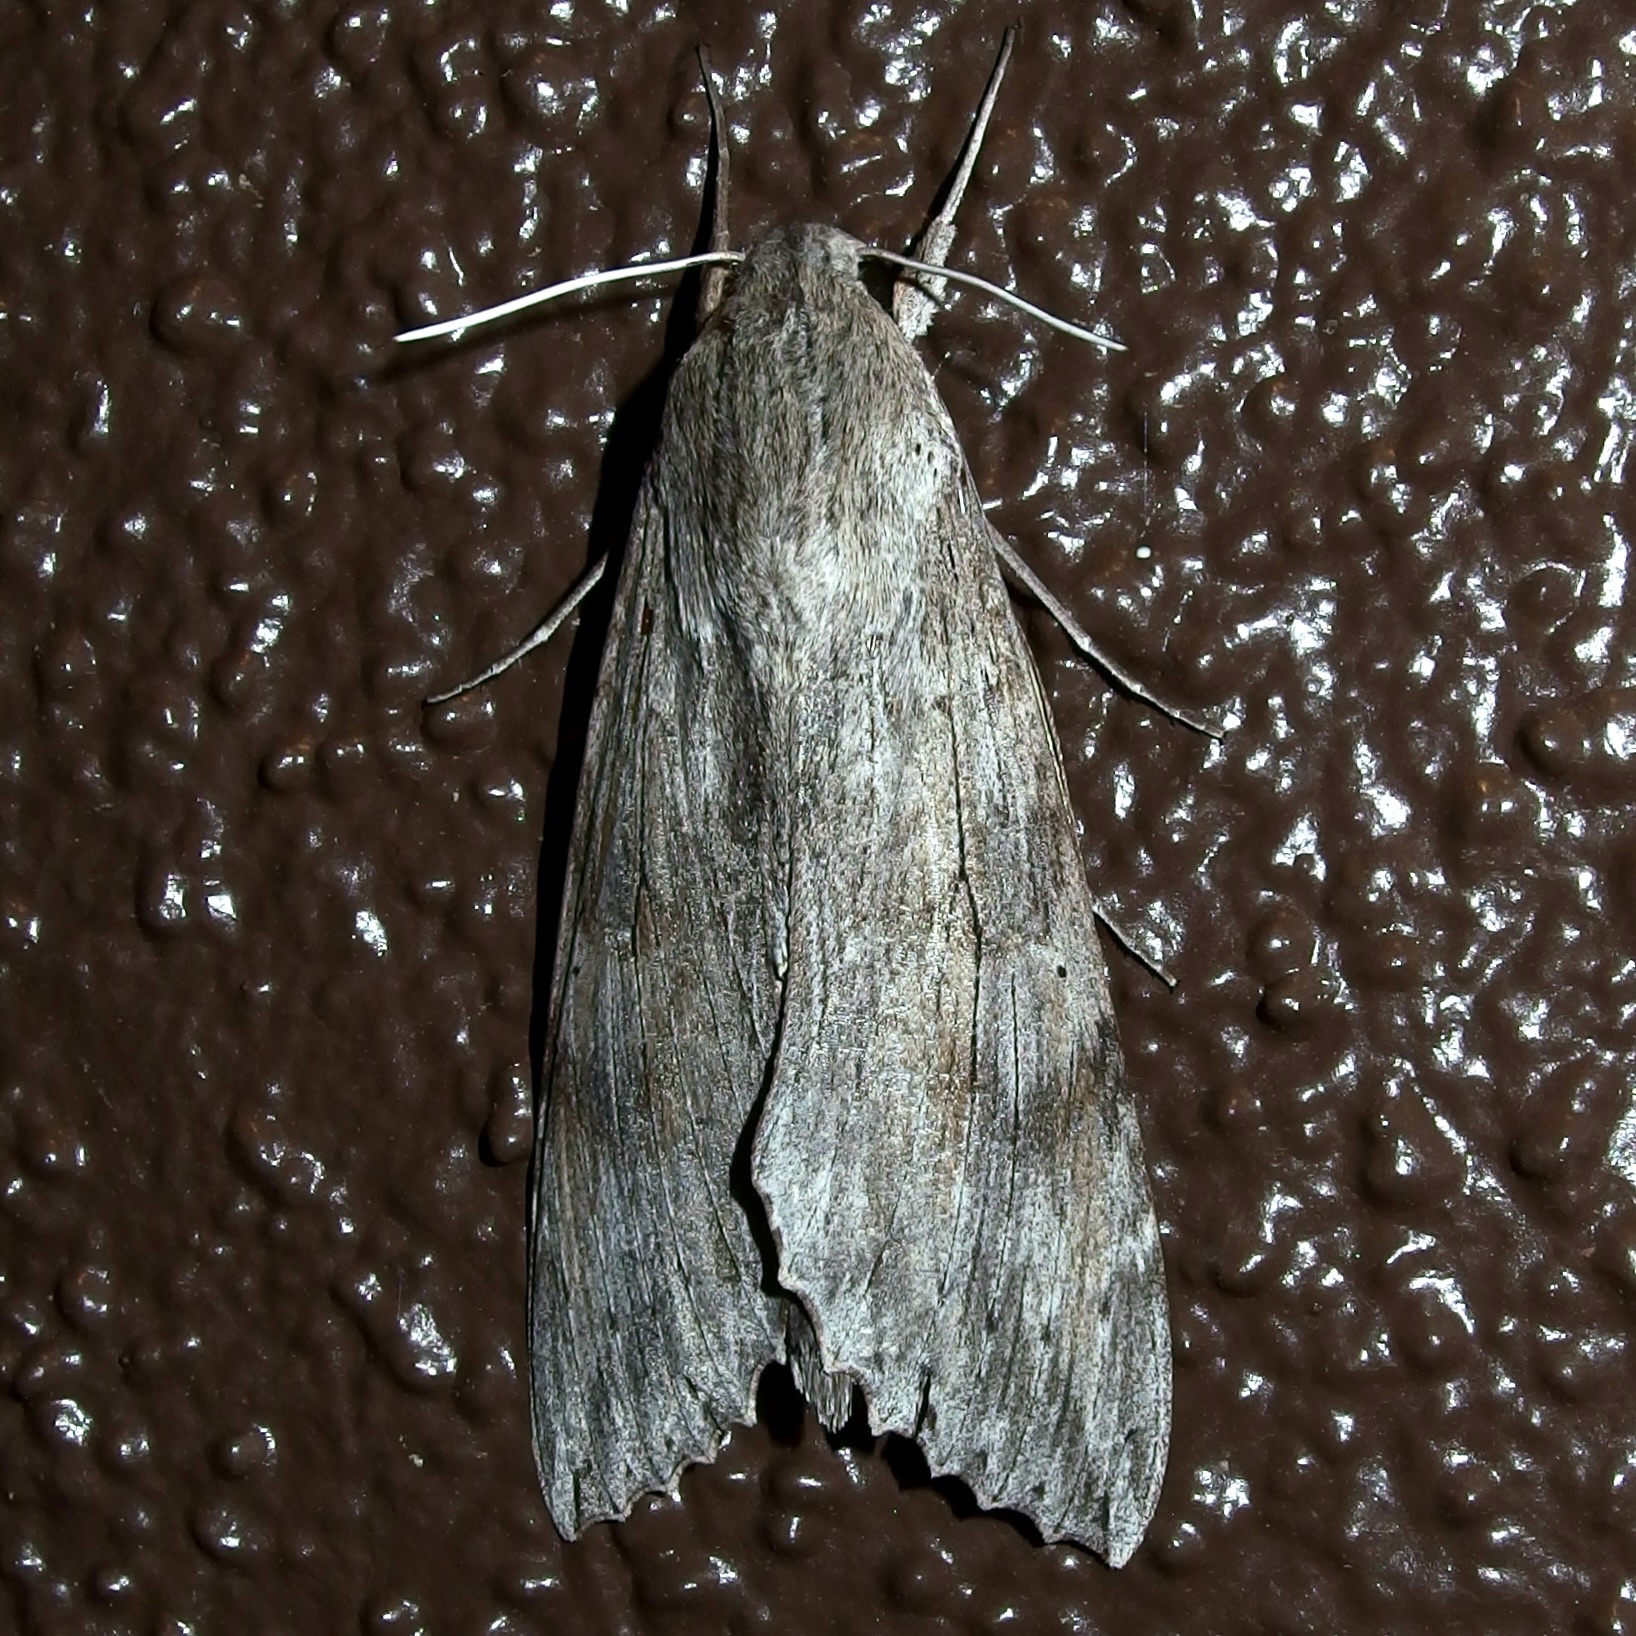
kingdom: Animalia
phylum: Arthropoda
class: Insecta
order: Lepidoptera
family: Sphingidae
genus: Erinnyis
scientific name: Erinnyis ello
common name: Ello sphinx
